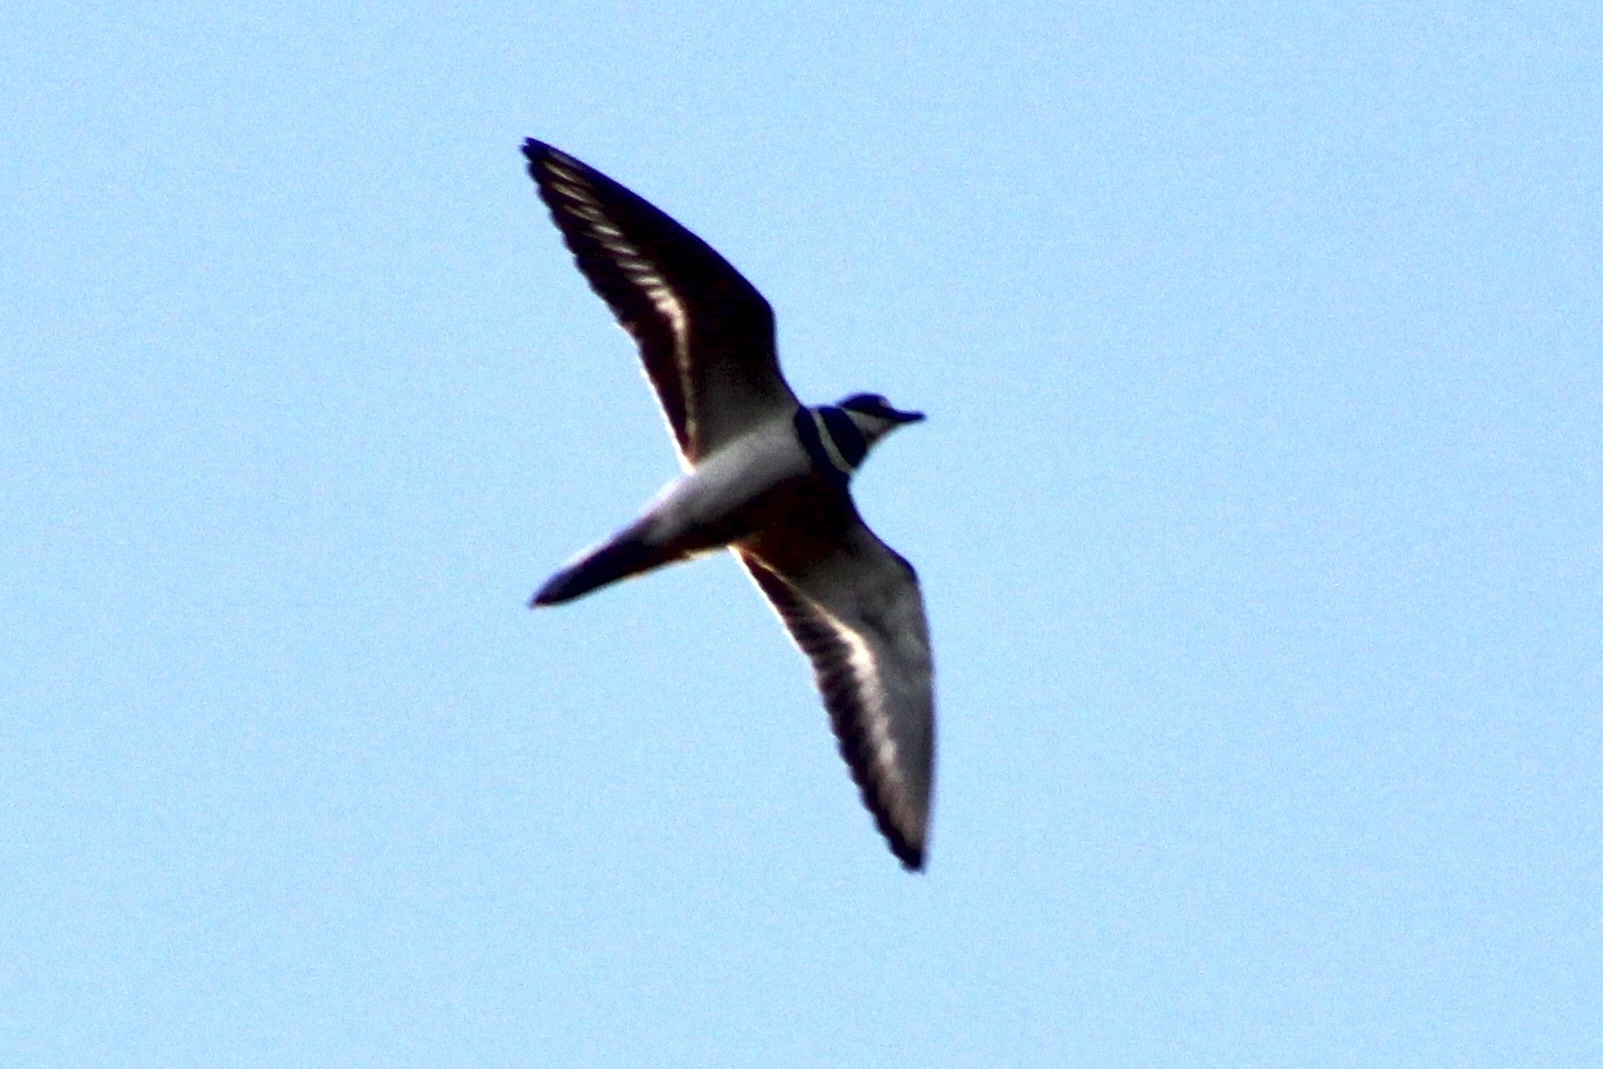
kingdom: Animalia
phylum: Chordata
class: Aves
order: Charadriiformes
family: Charadriidae
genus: Charadrius
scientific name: Charadrius vociferus
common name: Killdeer
